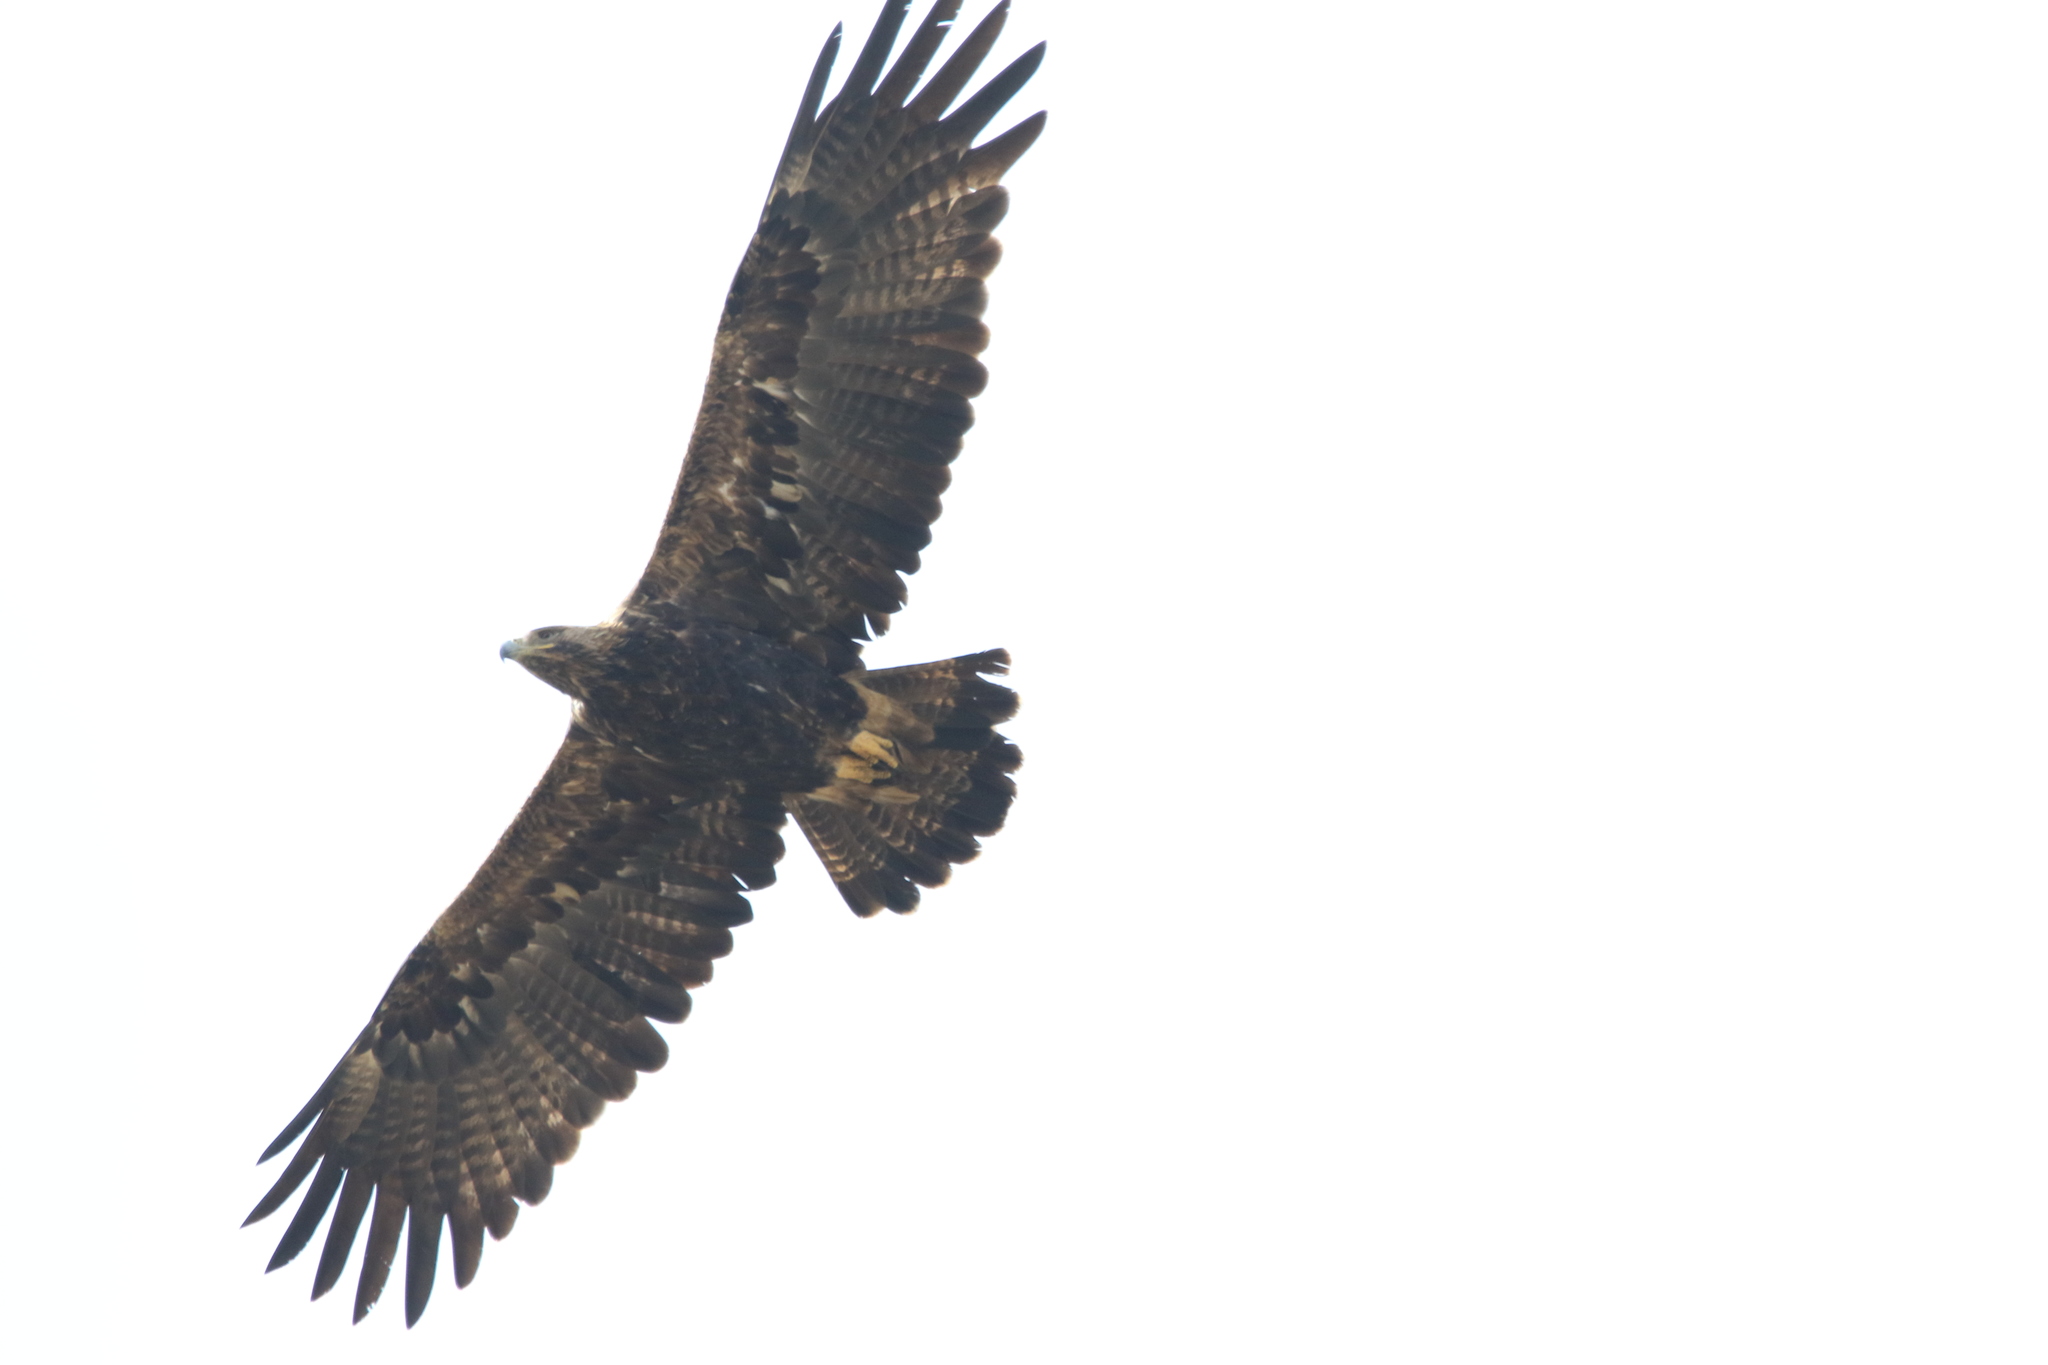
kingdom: Animalia
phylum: Chordata
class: Aves
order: Accipitriformes
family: Accipitridae
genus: Aquila
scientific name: Aquila heliaca
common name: Eastern imperial eagle
